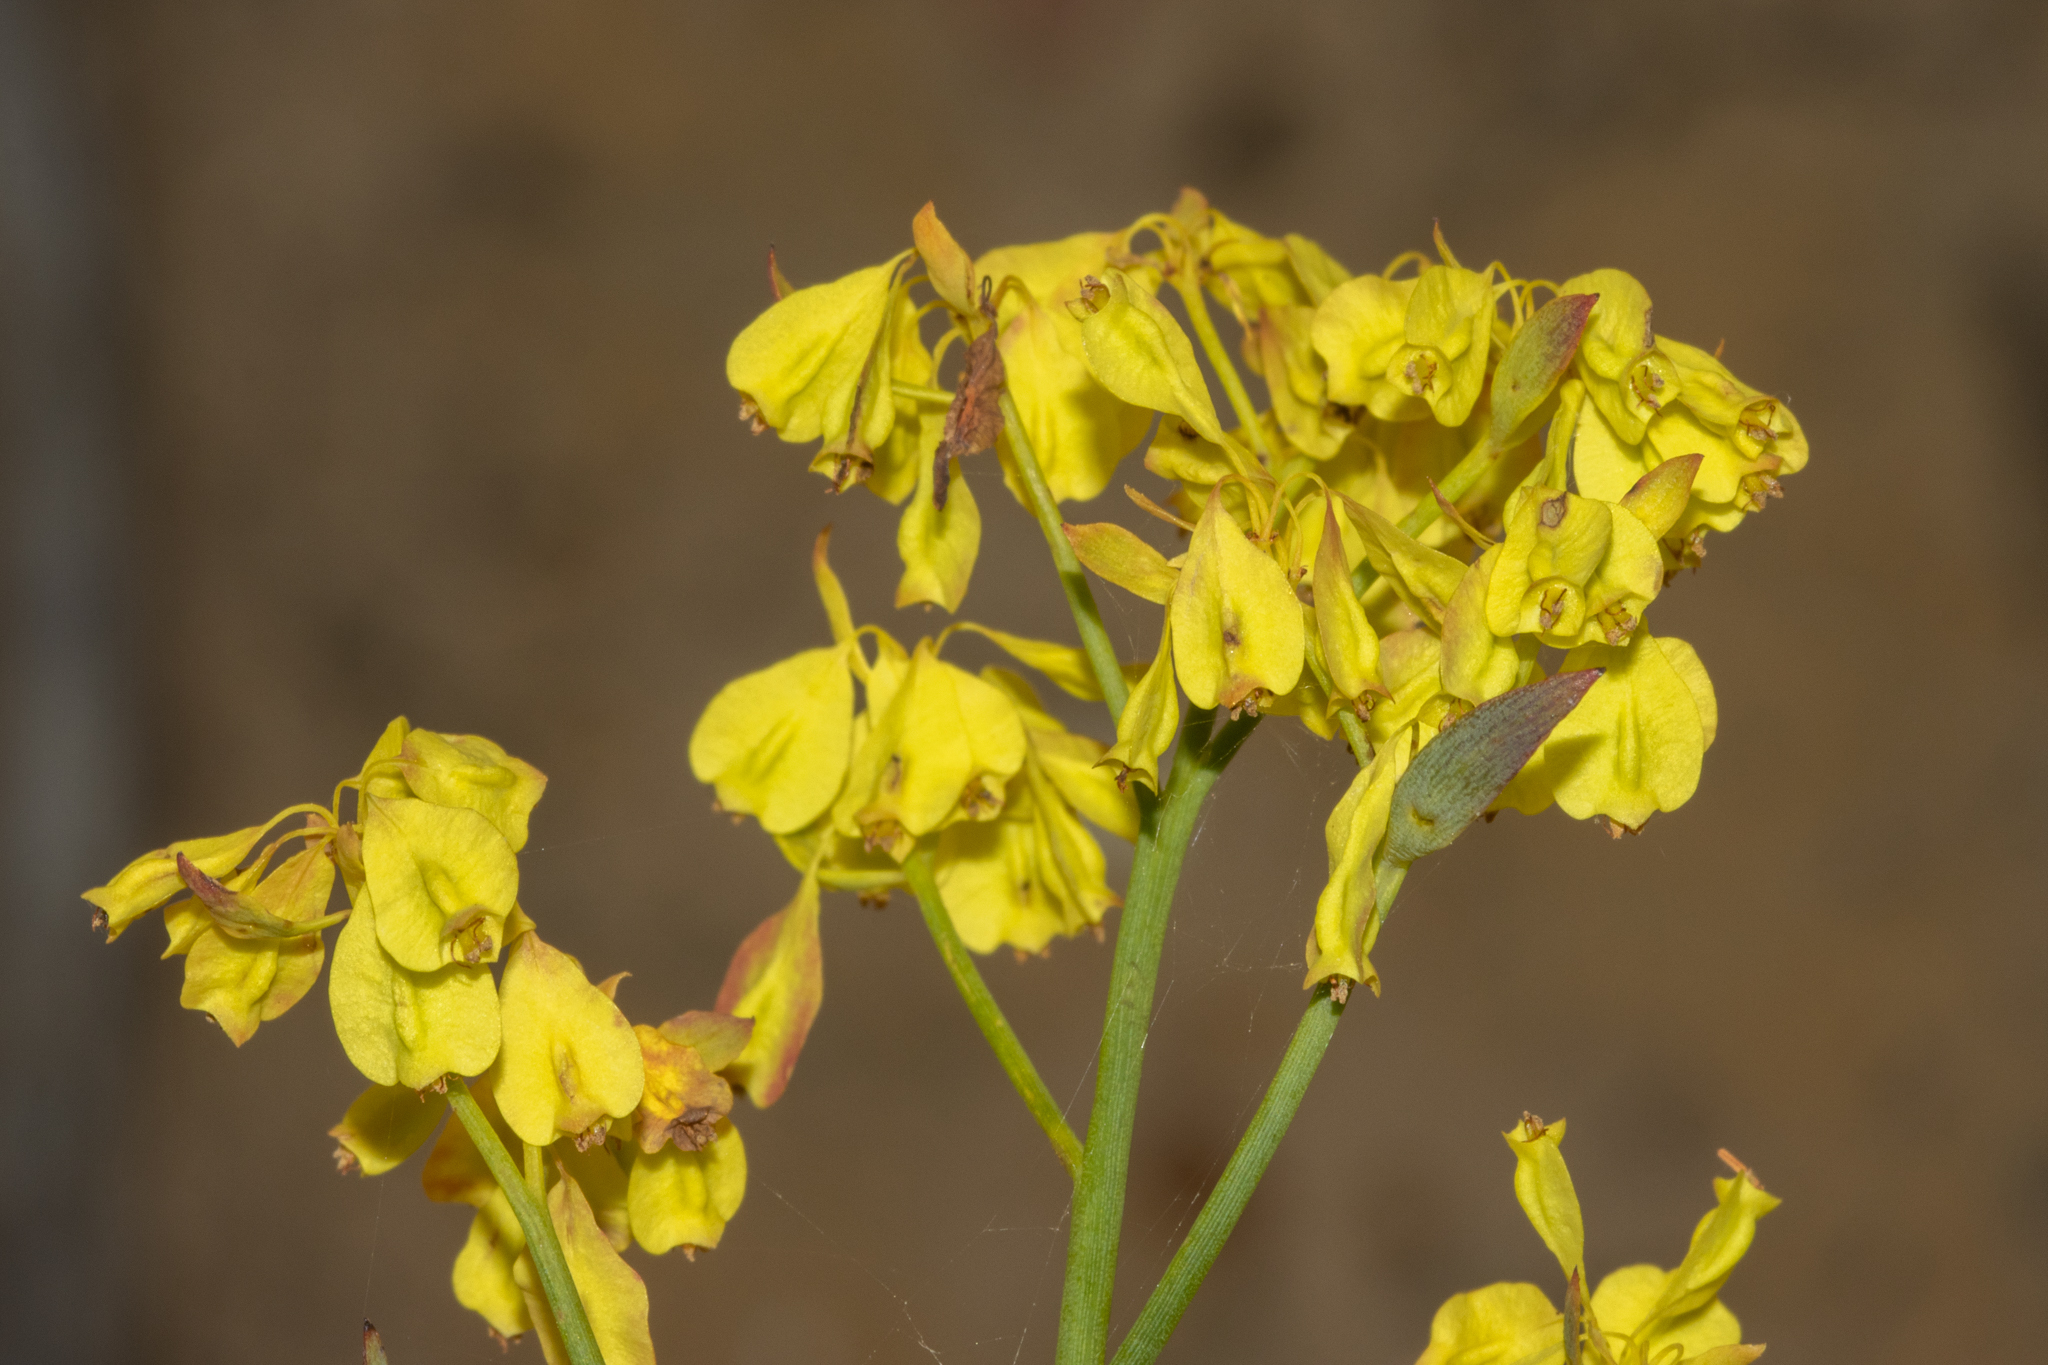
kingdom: Plantae
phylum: Tracheophyta
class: Magnoliopsida
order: Saxifragales
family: Haloragaceae
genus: Glischrocaryon
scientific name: Glischrocaryon behrii
